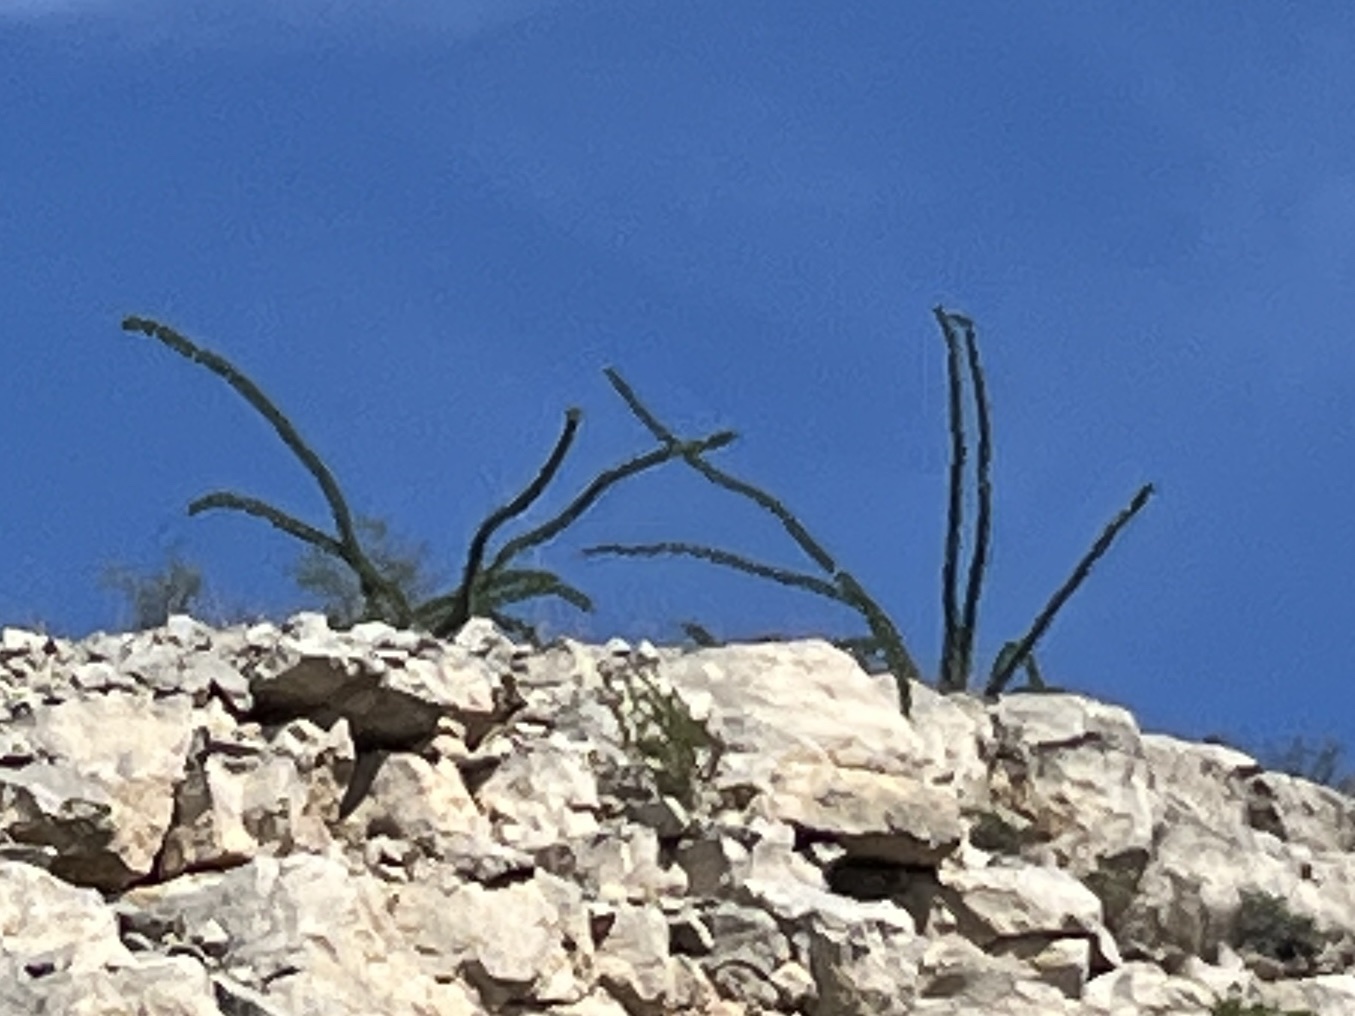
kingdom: Plantae
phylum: Tracheophyta
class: Magnoliopsida
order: Ericales
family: Fouquieriaceae
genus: Fouquieria
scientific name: Fouquieria splendens
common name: Vine-cactus
